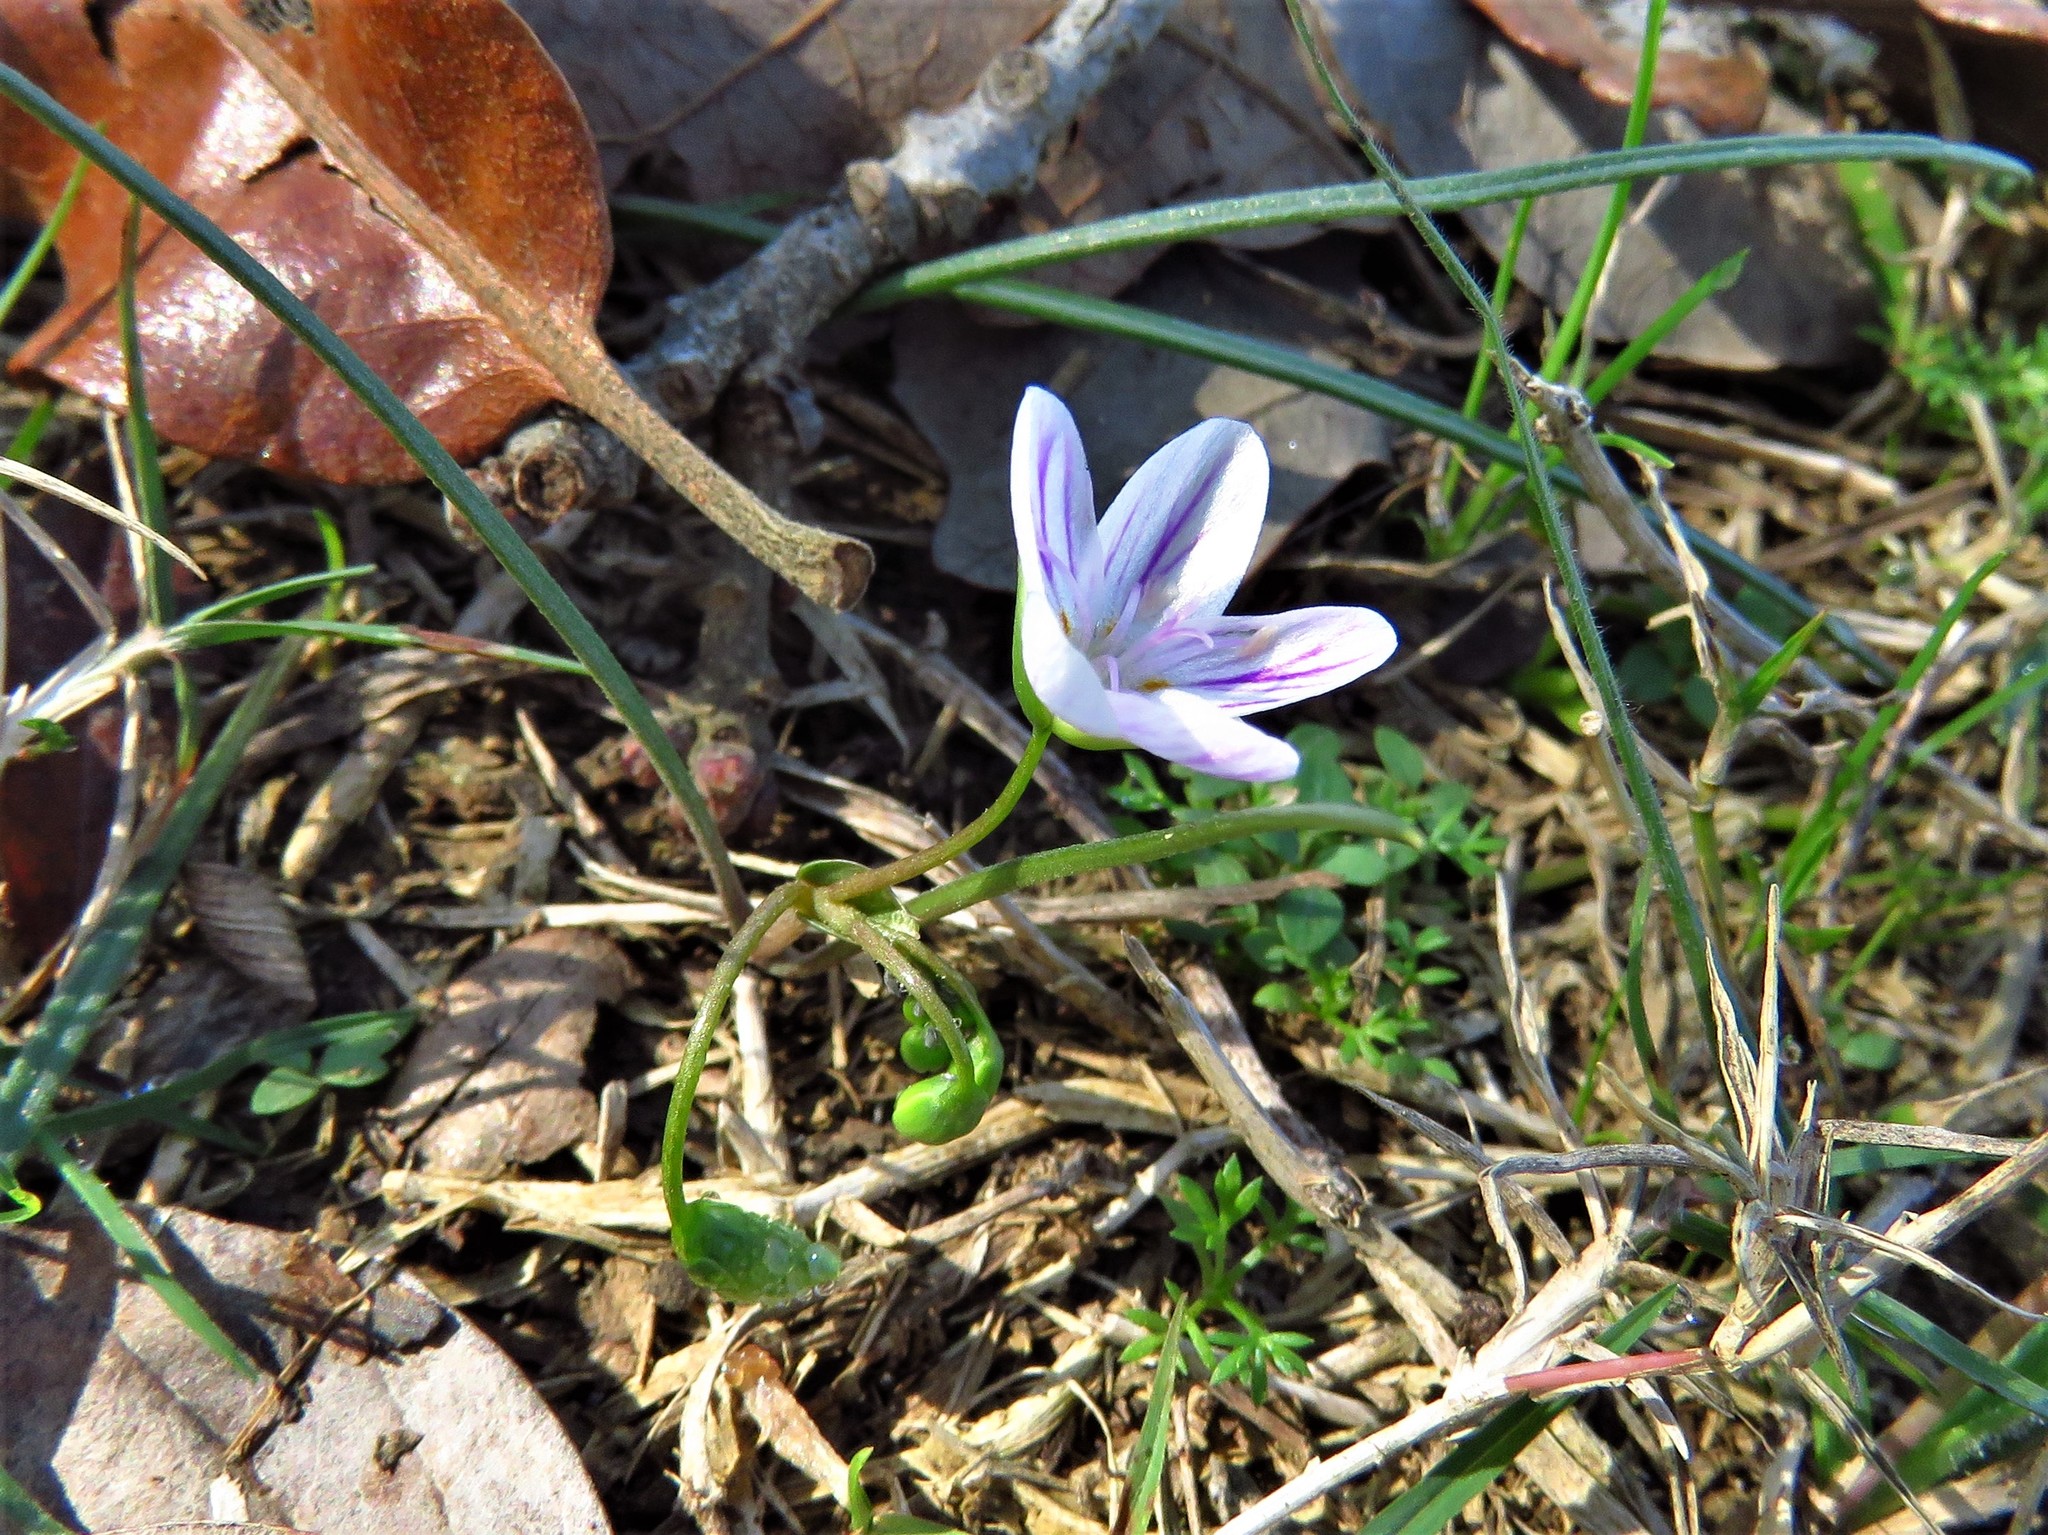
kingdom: Plantae
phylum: Tracheophyta
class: Magnoliopsida
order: Caryophyllales
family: Montiaceae
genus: Claytonia
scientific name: Claytonia virginica
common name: Virginia springbeauty
